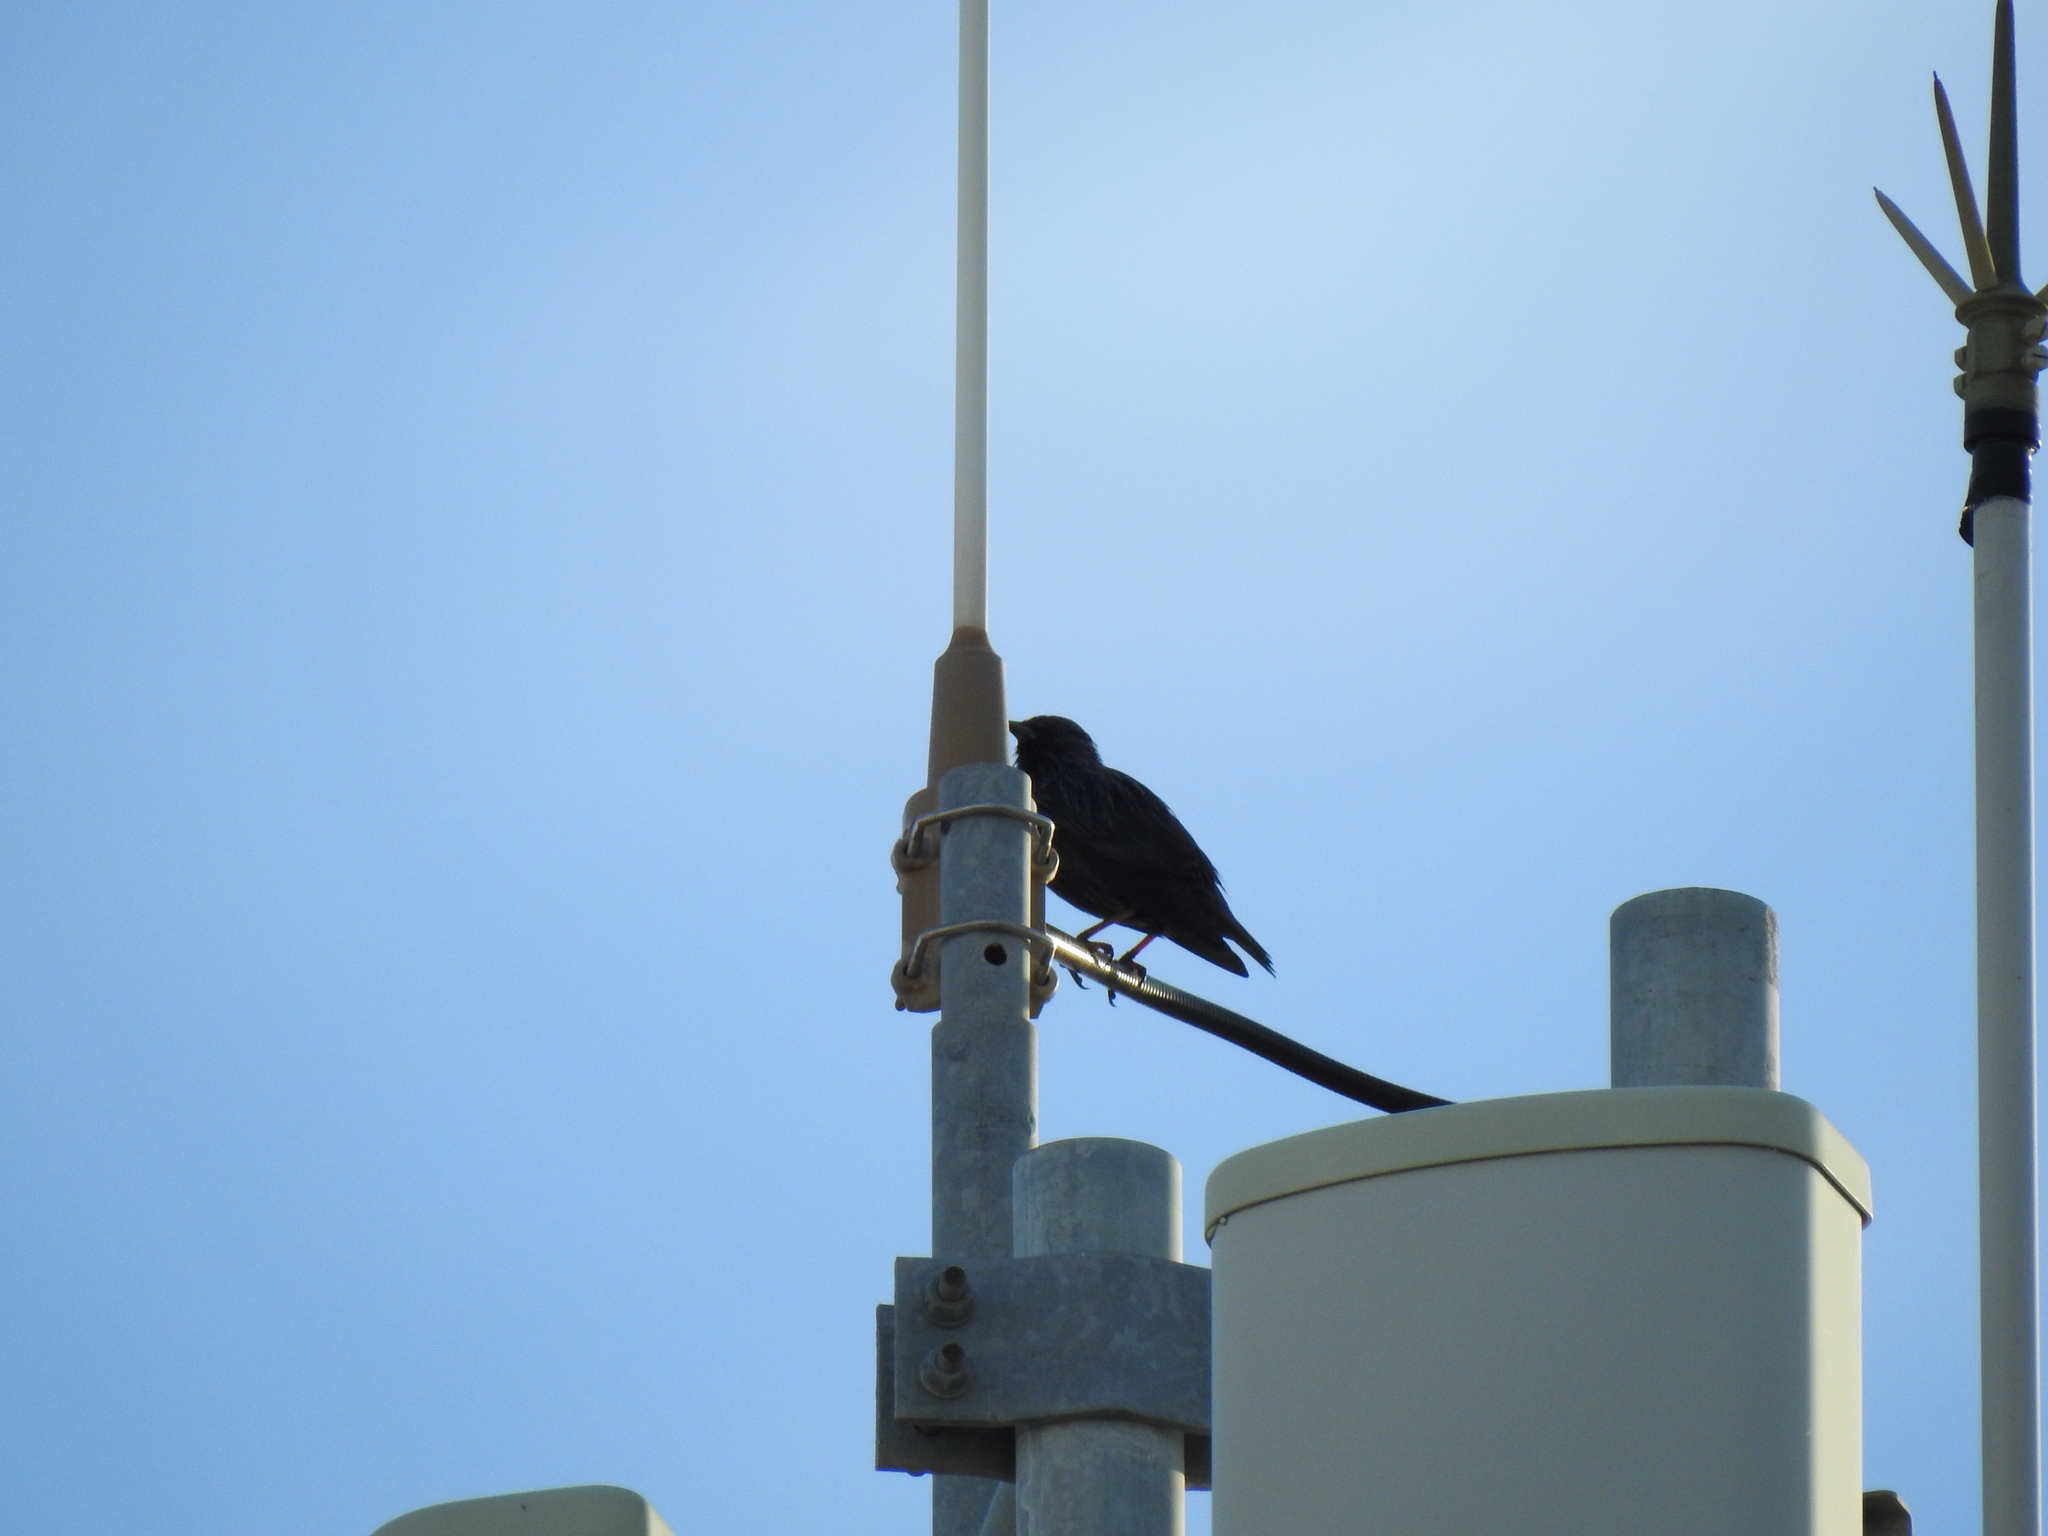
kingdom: Animalia
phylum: Chordata
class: Aves
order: Passeriformes
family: Sturnidae
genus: Sturnus
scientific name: Sturnus unicolor
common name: Spotless starling
